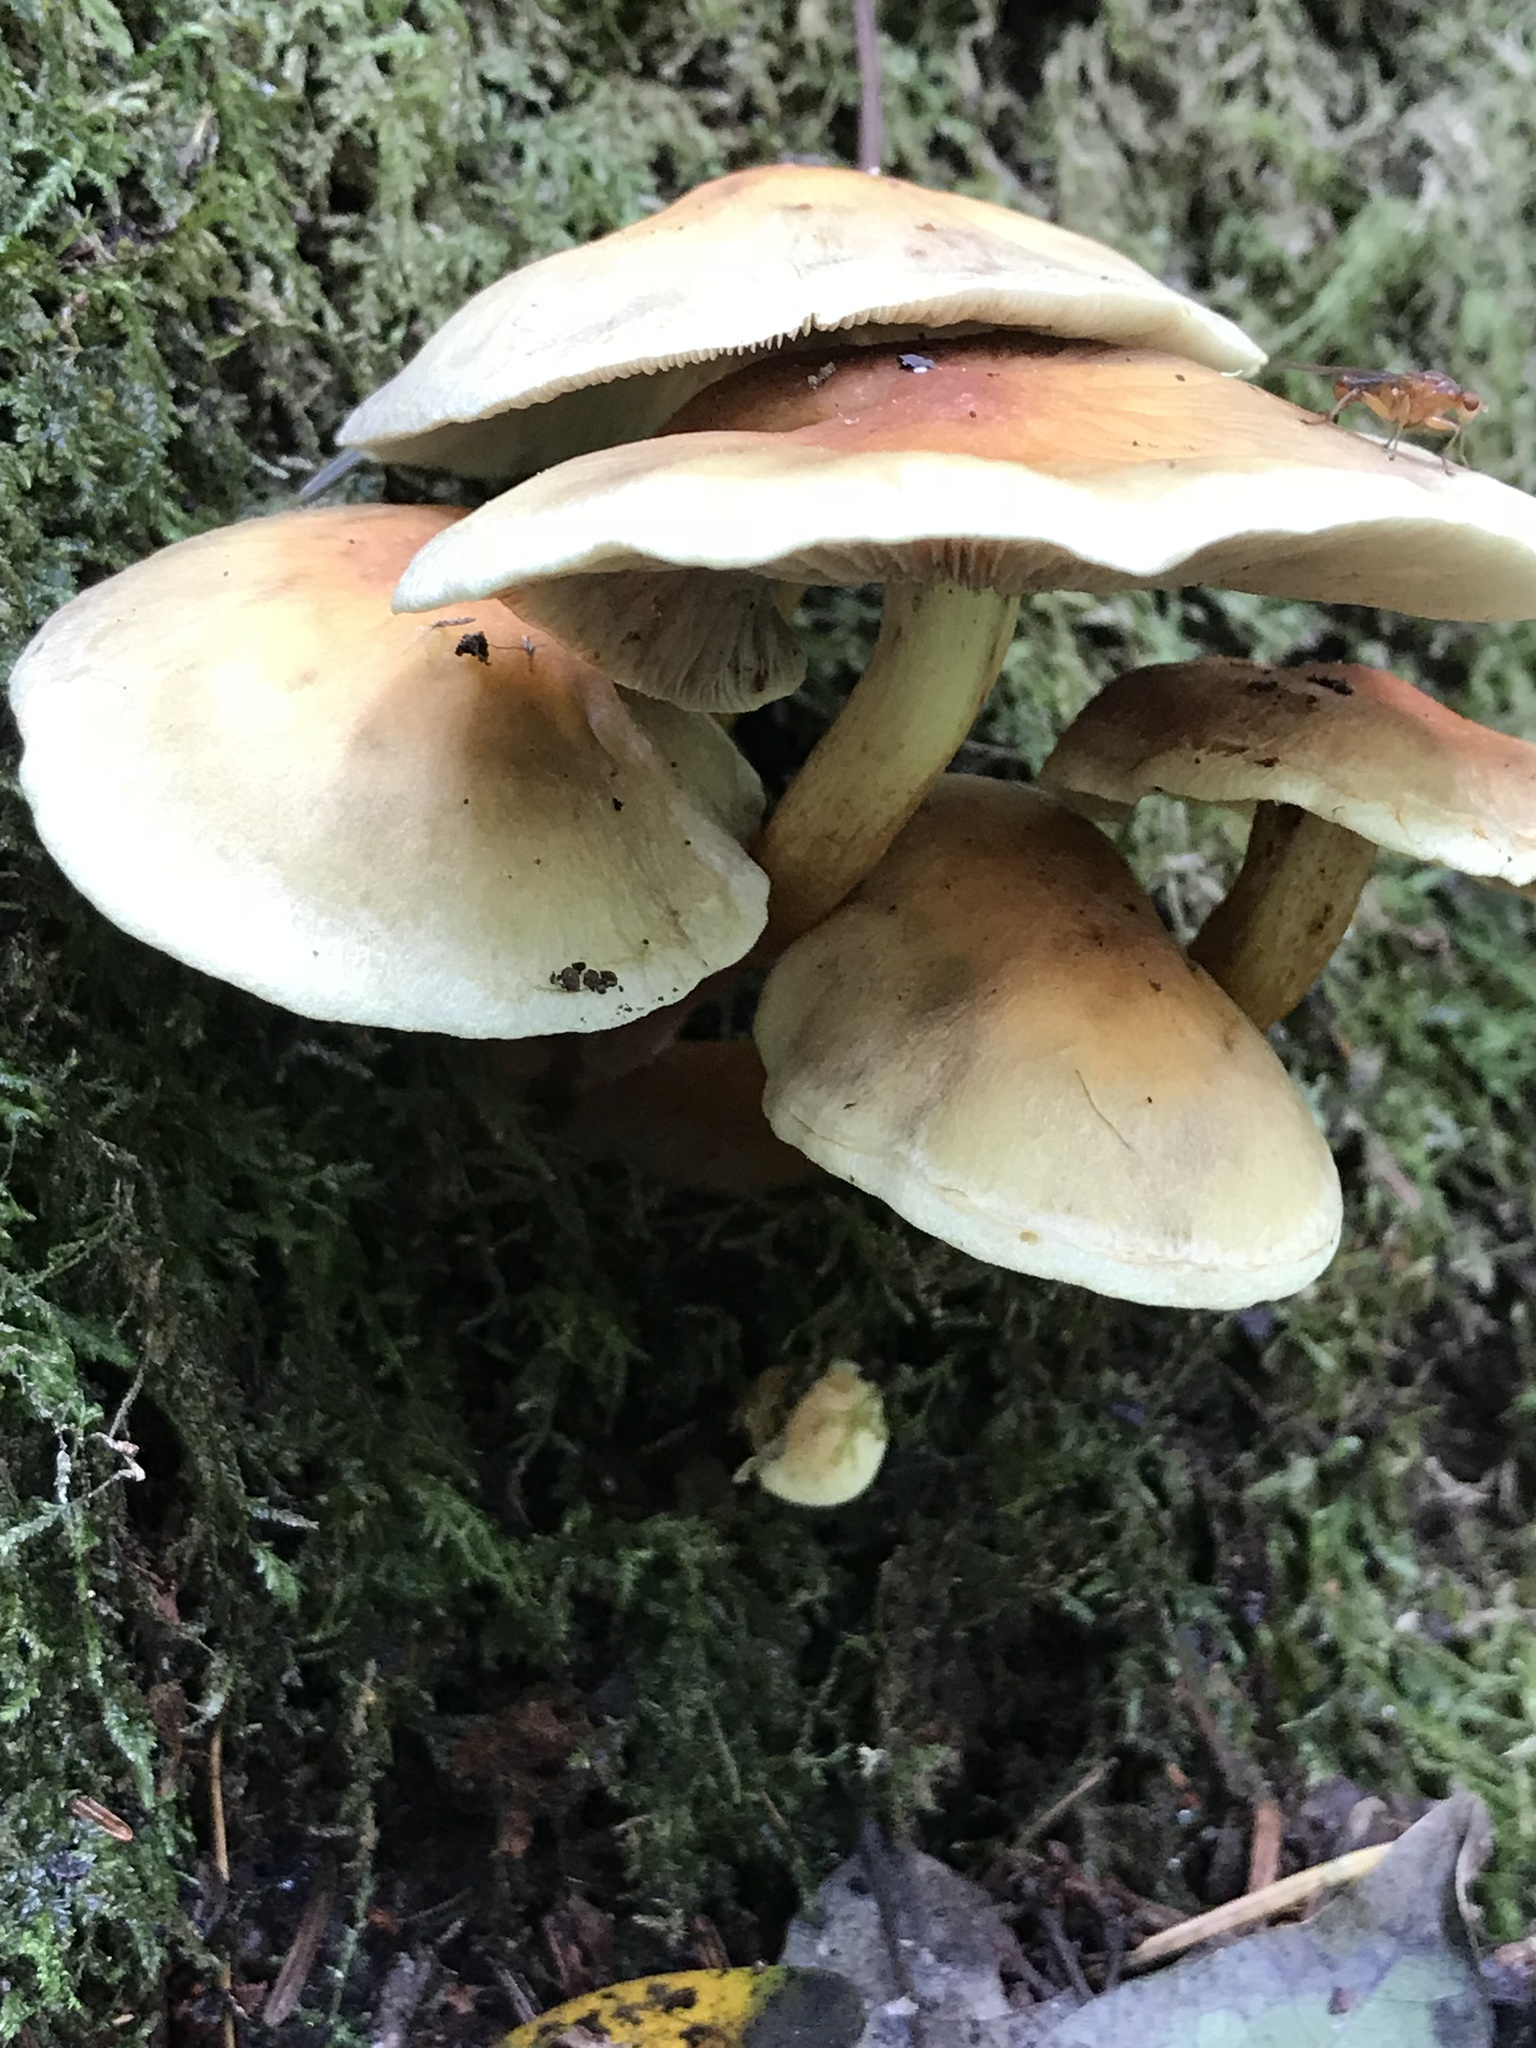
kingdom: Fungi
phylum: Basidiomycota
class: Agaricomycetes
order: Agaricales
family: Strophariaceae
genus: Hypholoma
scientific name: Hypholoma fasciculare
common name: Sulphur tuft
